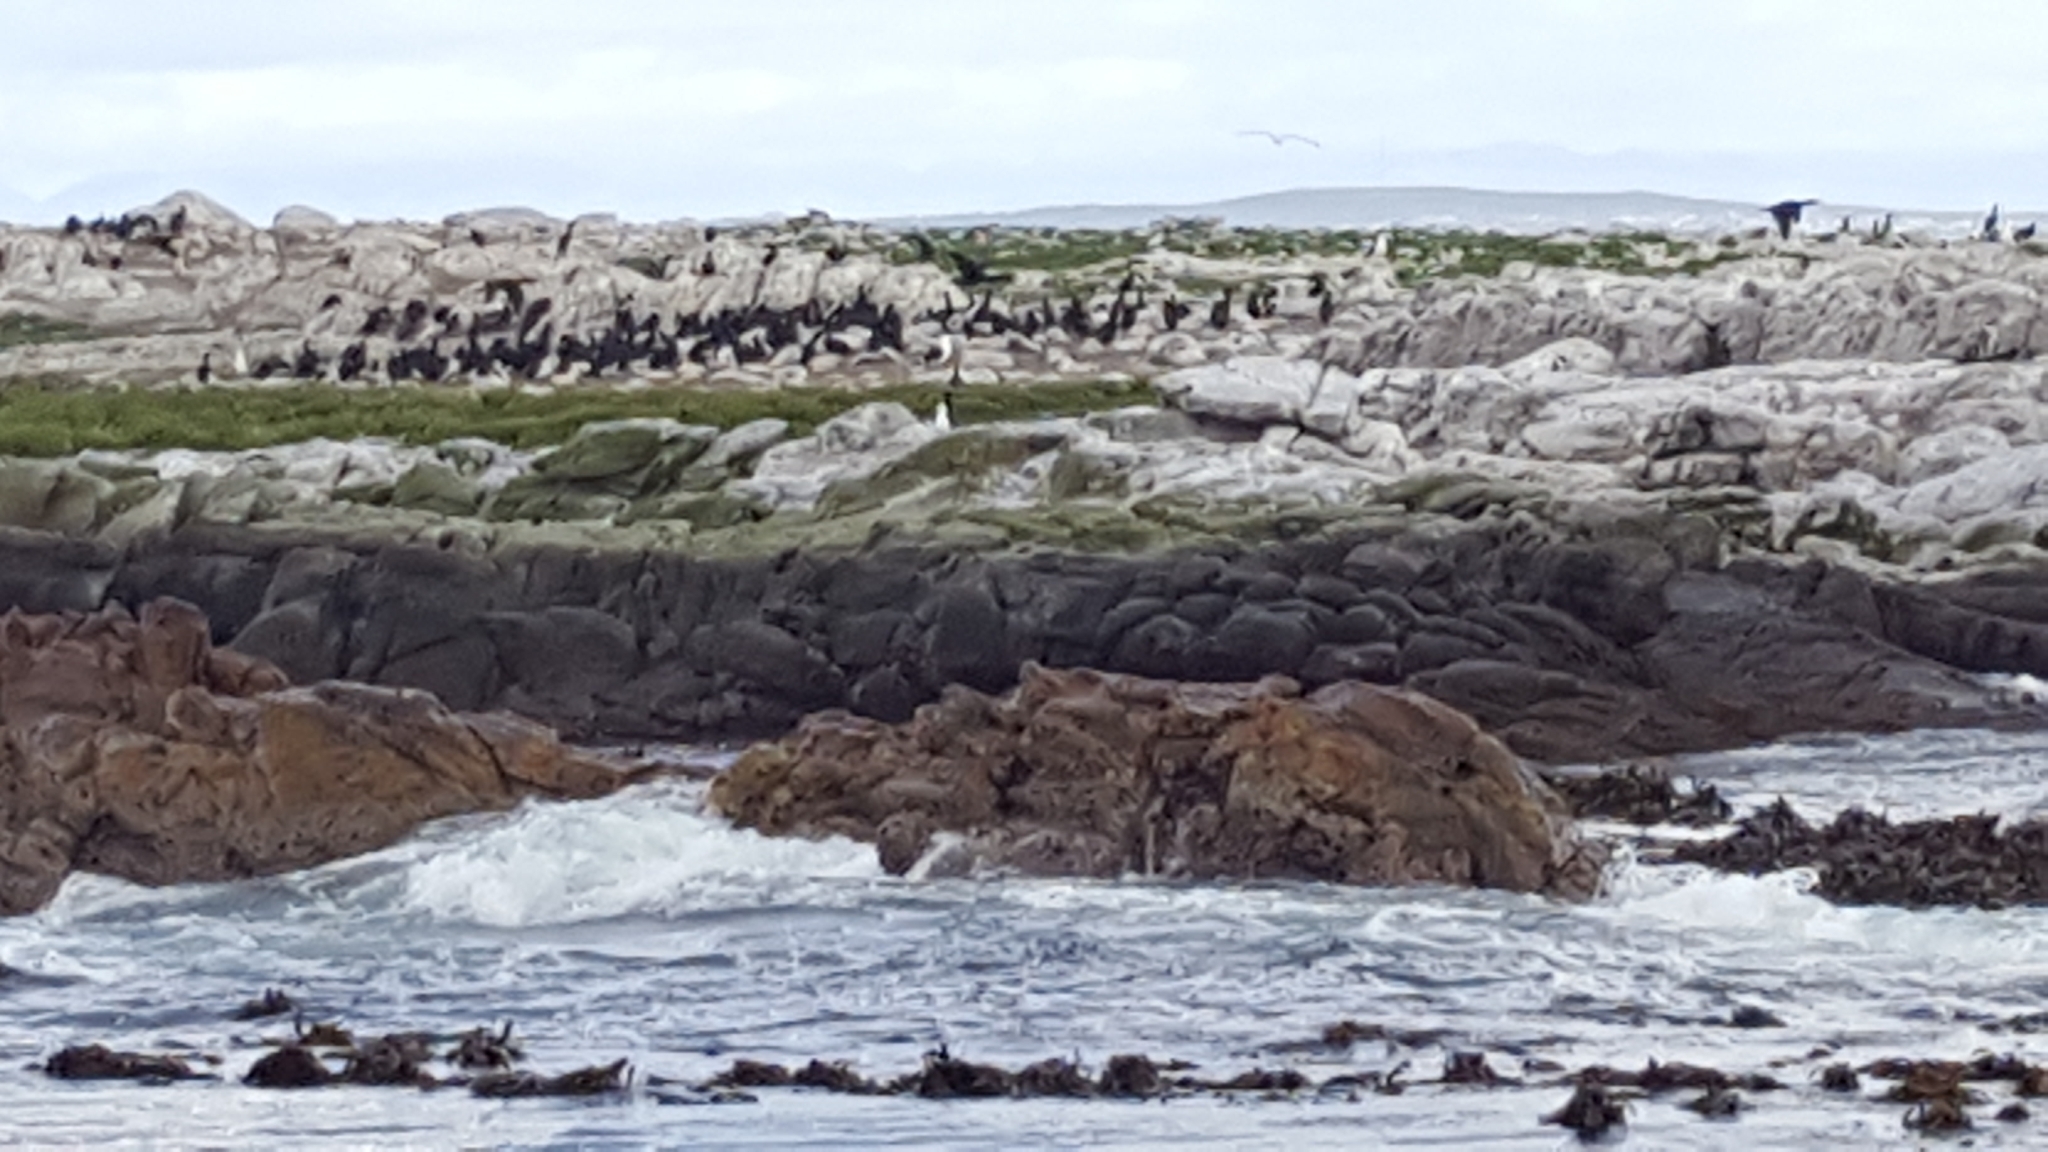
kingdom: Animalia
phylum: Chordata
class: Aves
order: Charadriiformes
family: Laridae
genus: Larus
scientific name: Larus dominicanus
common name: Kelp gull
